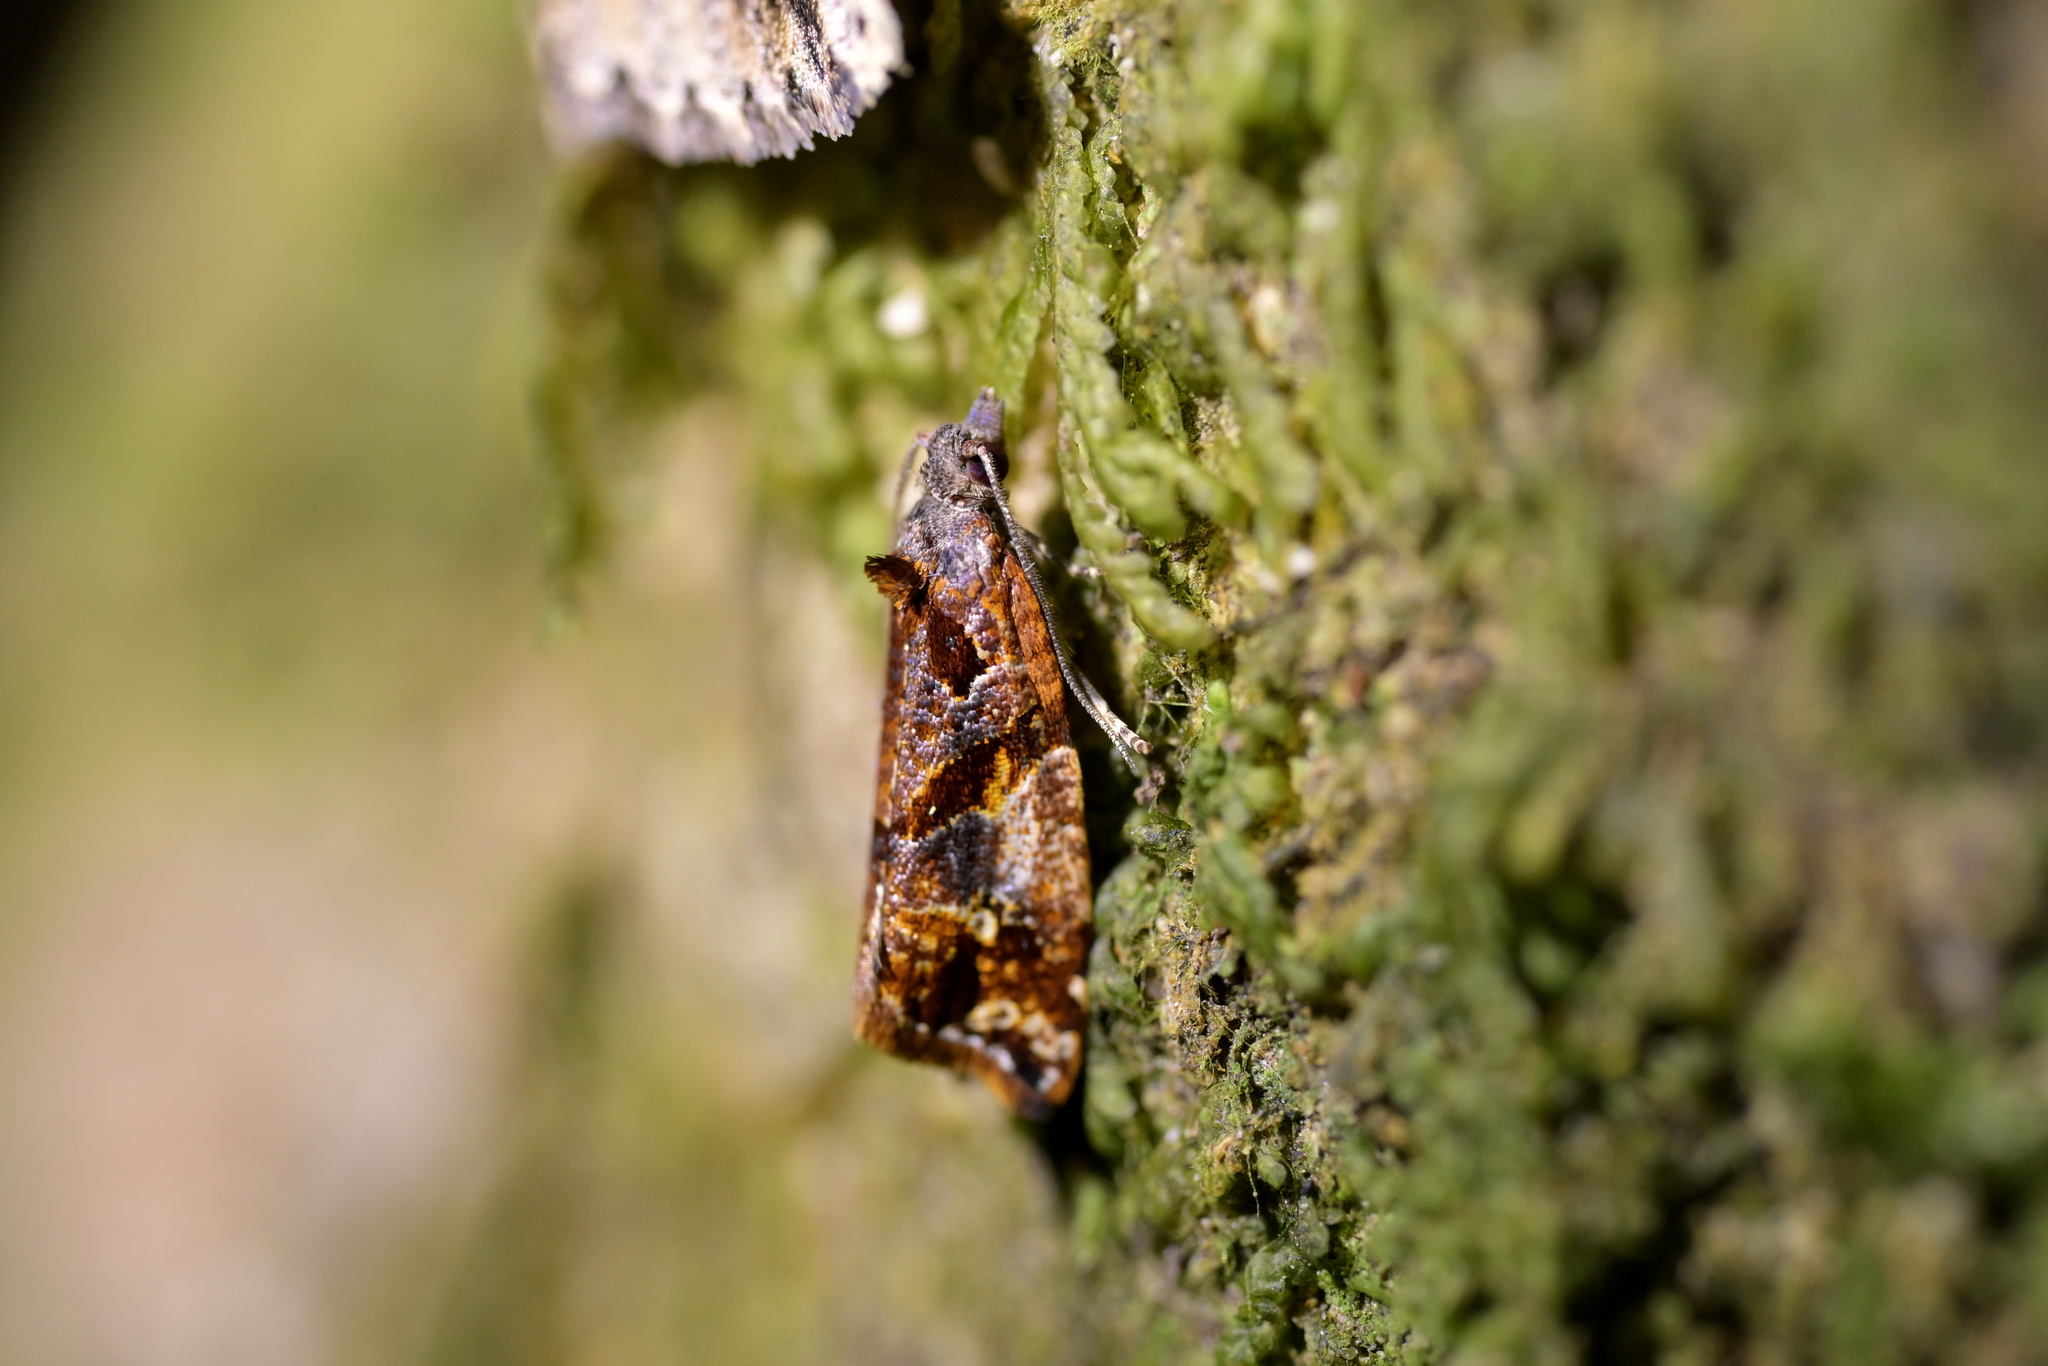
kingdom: Animalia
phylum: Arthropoda
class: Insecta
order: Lepidoptera
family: Tortricidae
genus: Pyrgotis
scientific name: Pyrgotis plagiatana
